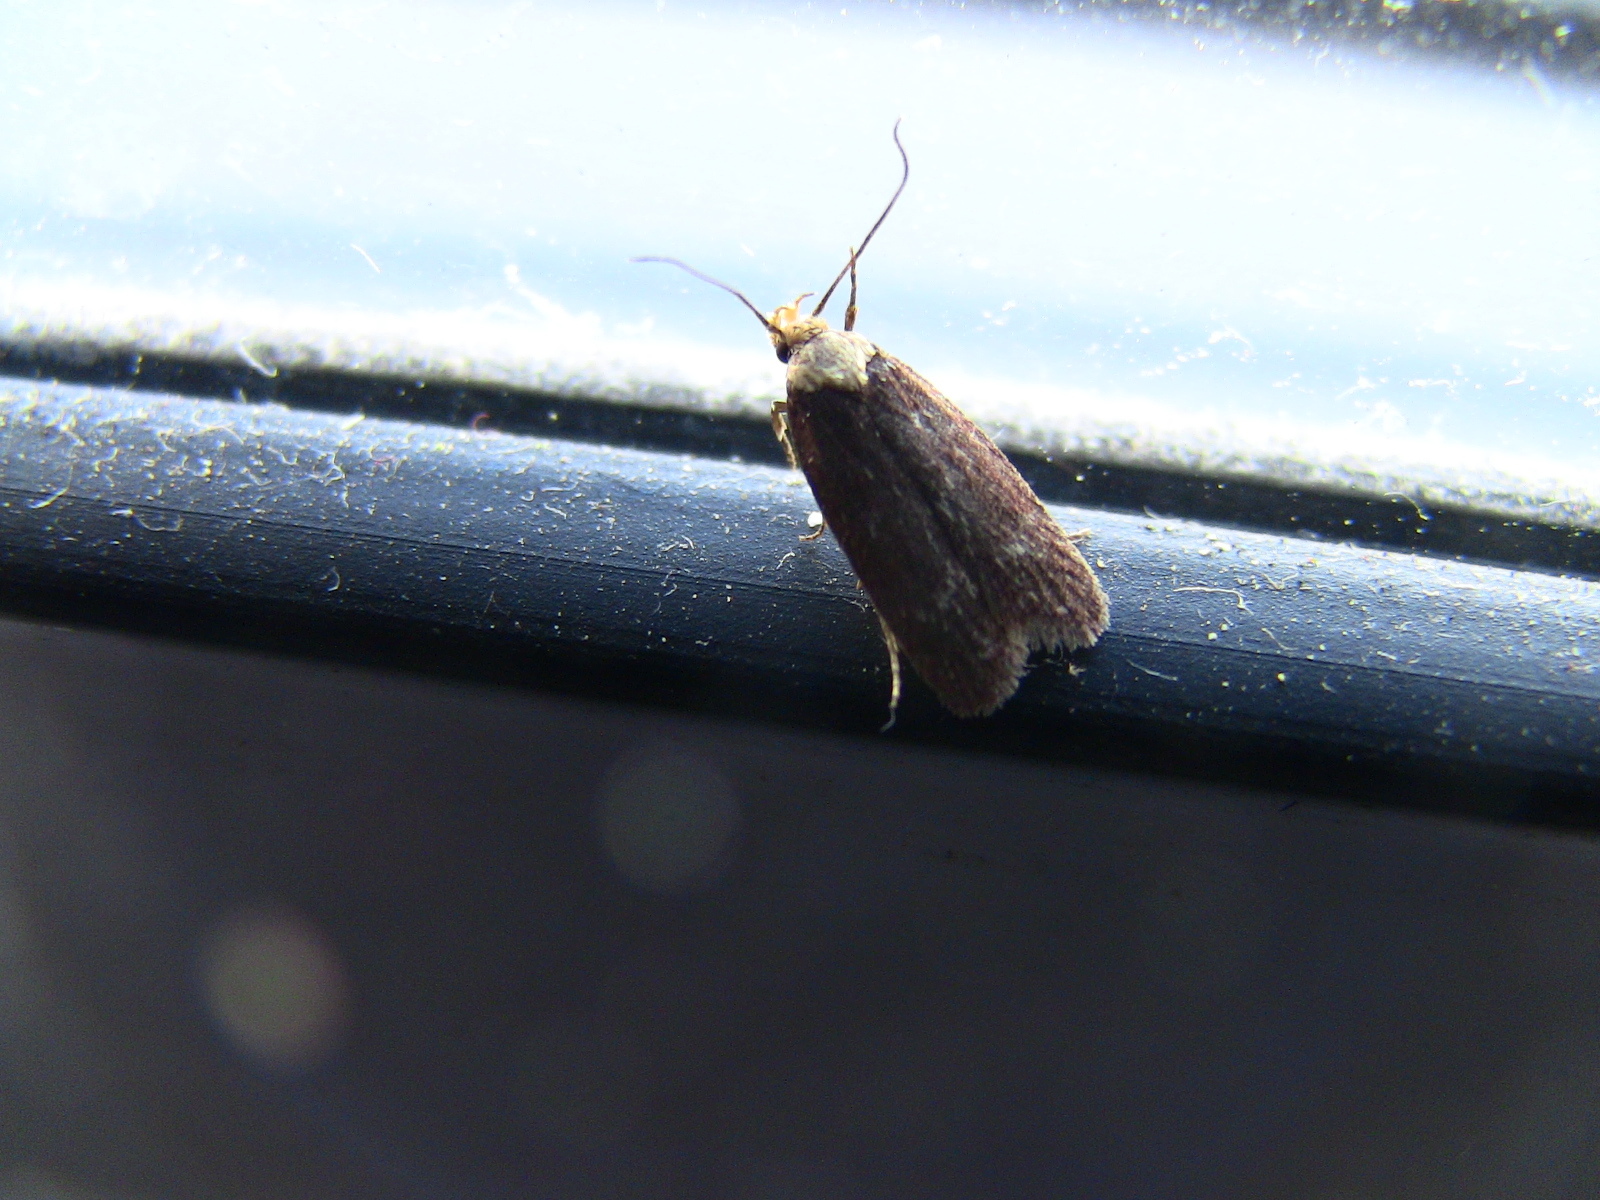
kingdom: Animalia
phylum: Arthropoda
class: Insecta
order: Lepidoptera
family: Depressariidae
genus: Depressaria
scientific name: Depressaria depressana
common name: Lost flat-body
